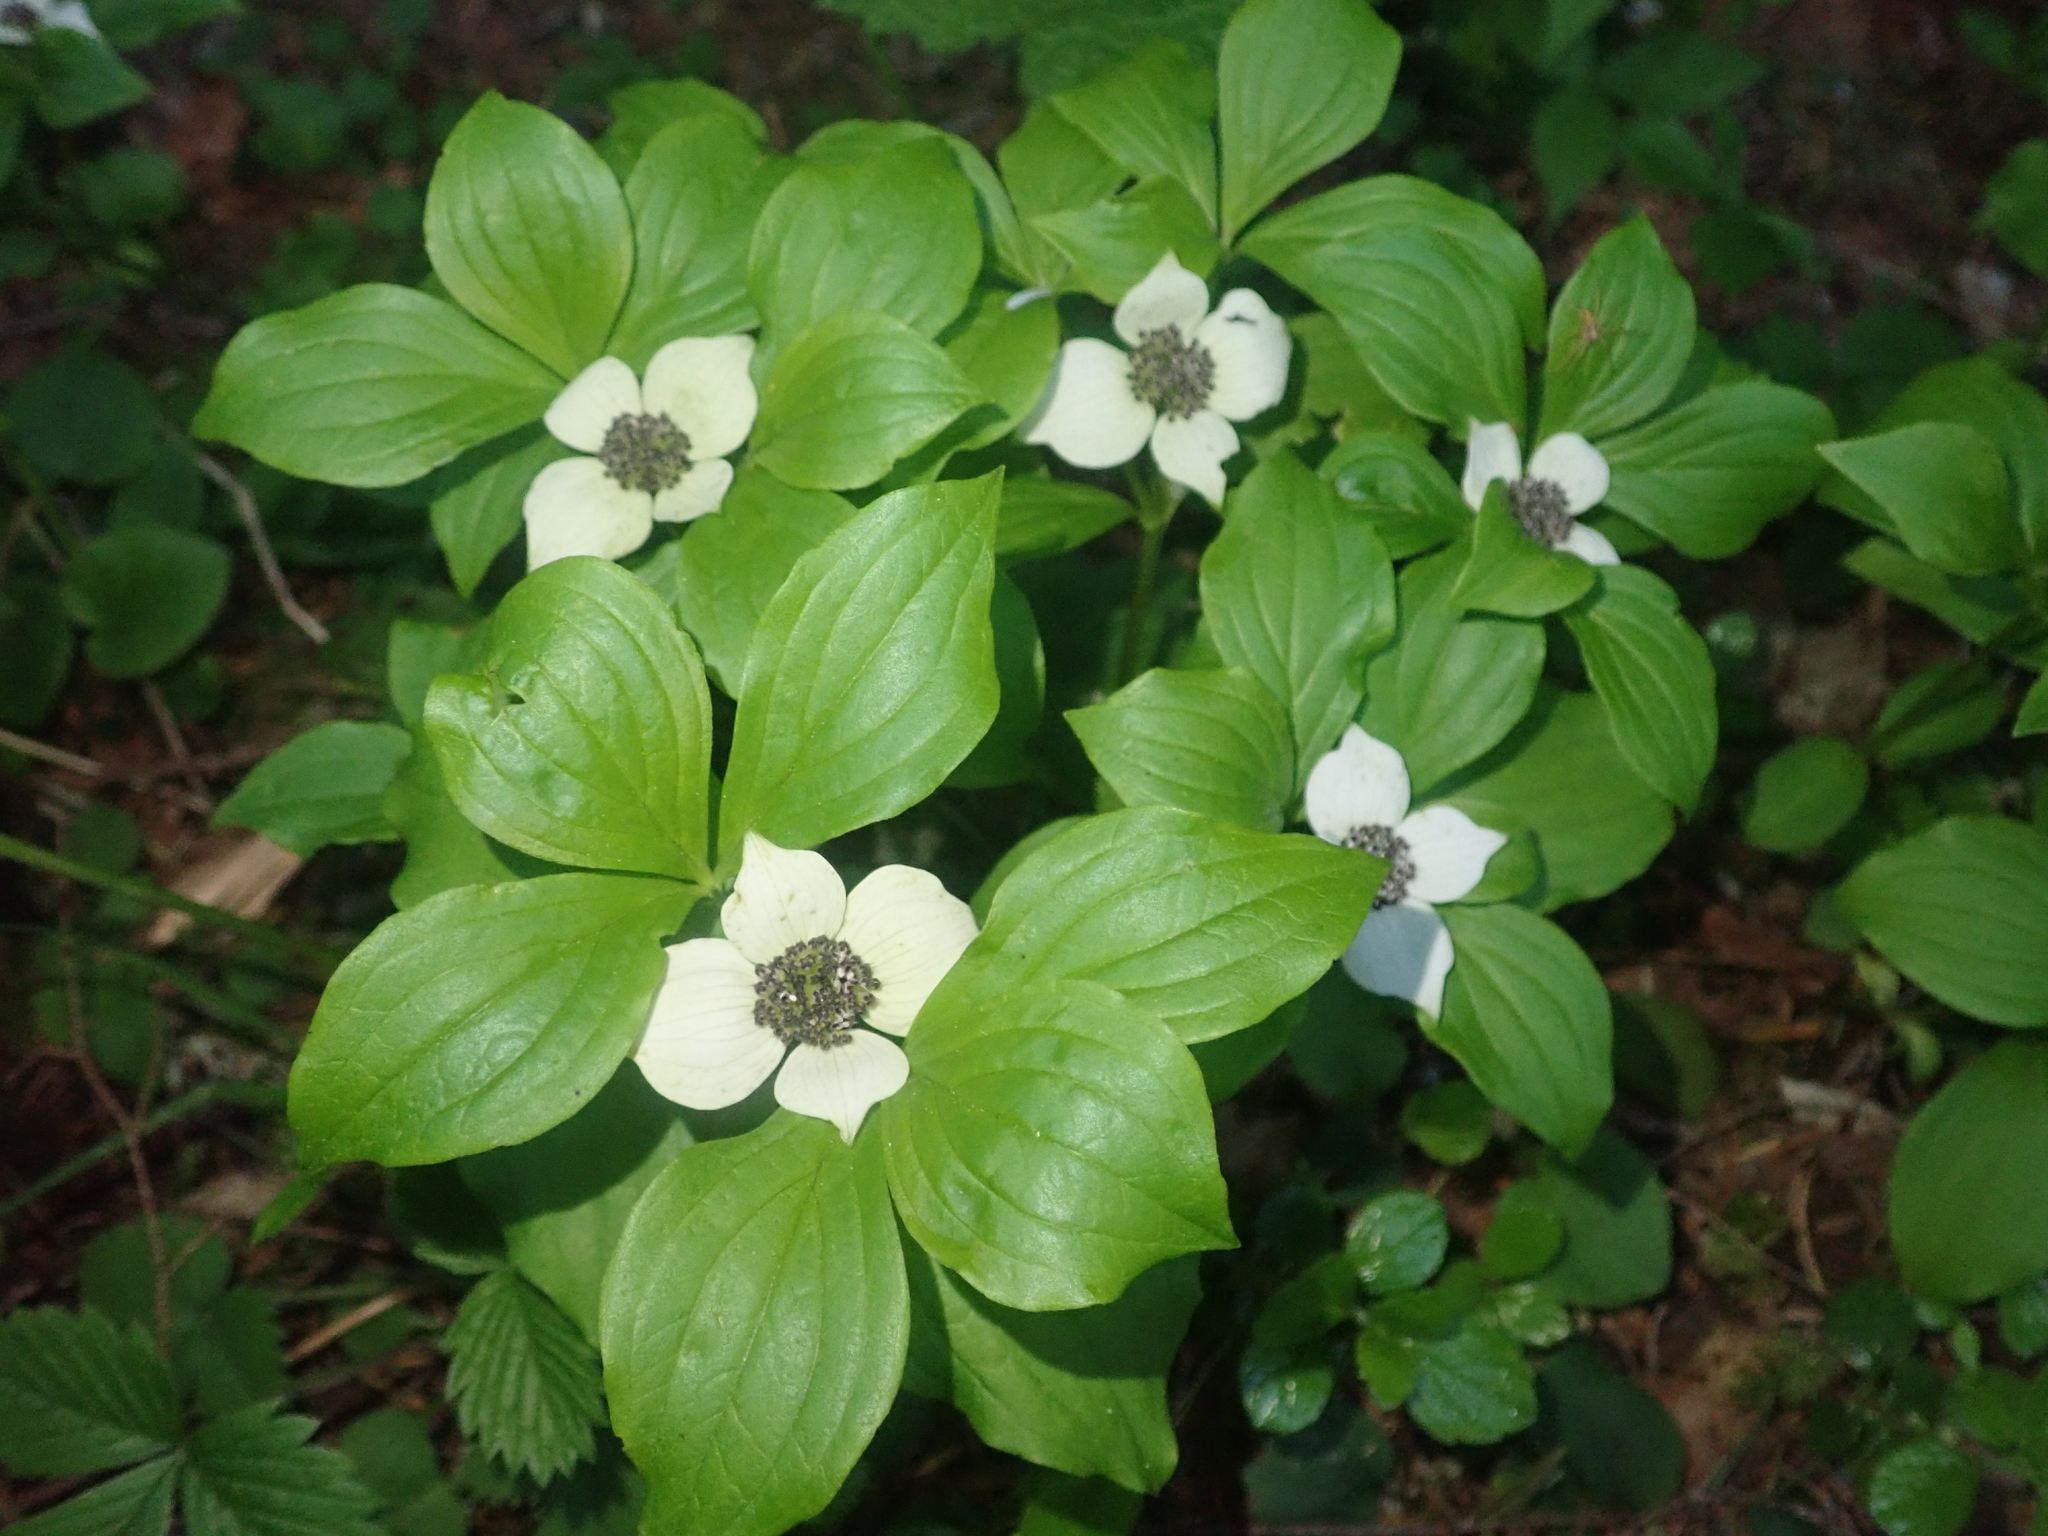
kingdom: Plantae
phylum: Tracheophyta
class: Magnoliopsida
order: Cornales
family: Cornaceae
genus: Cornus
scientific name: Cornus unalaschkensis
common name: Alaska bunchberry
